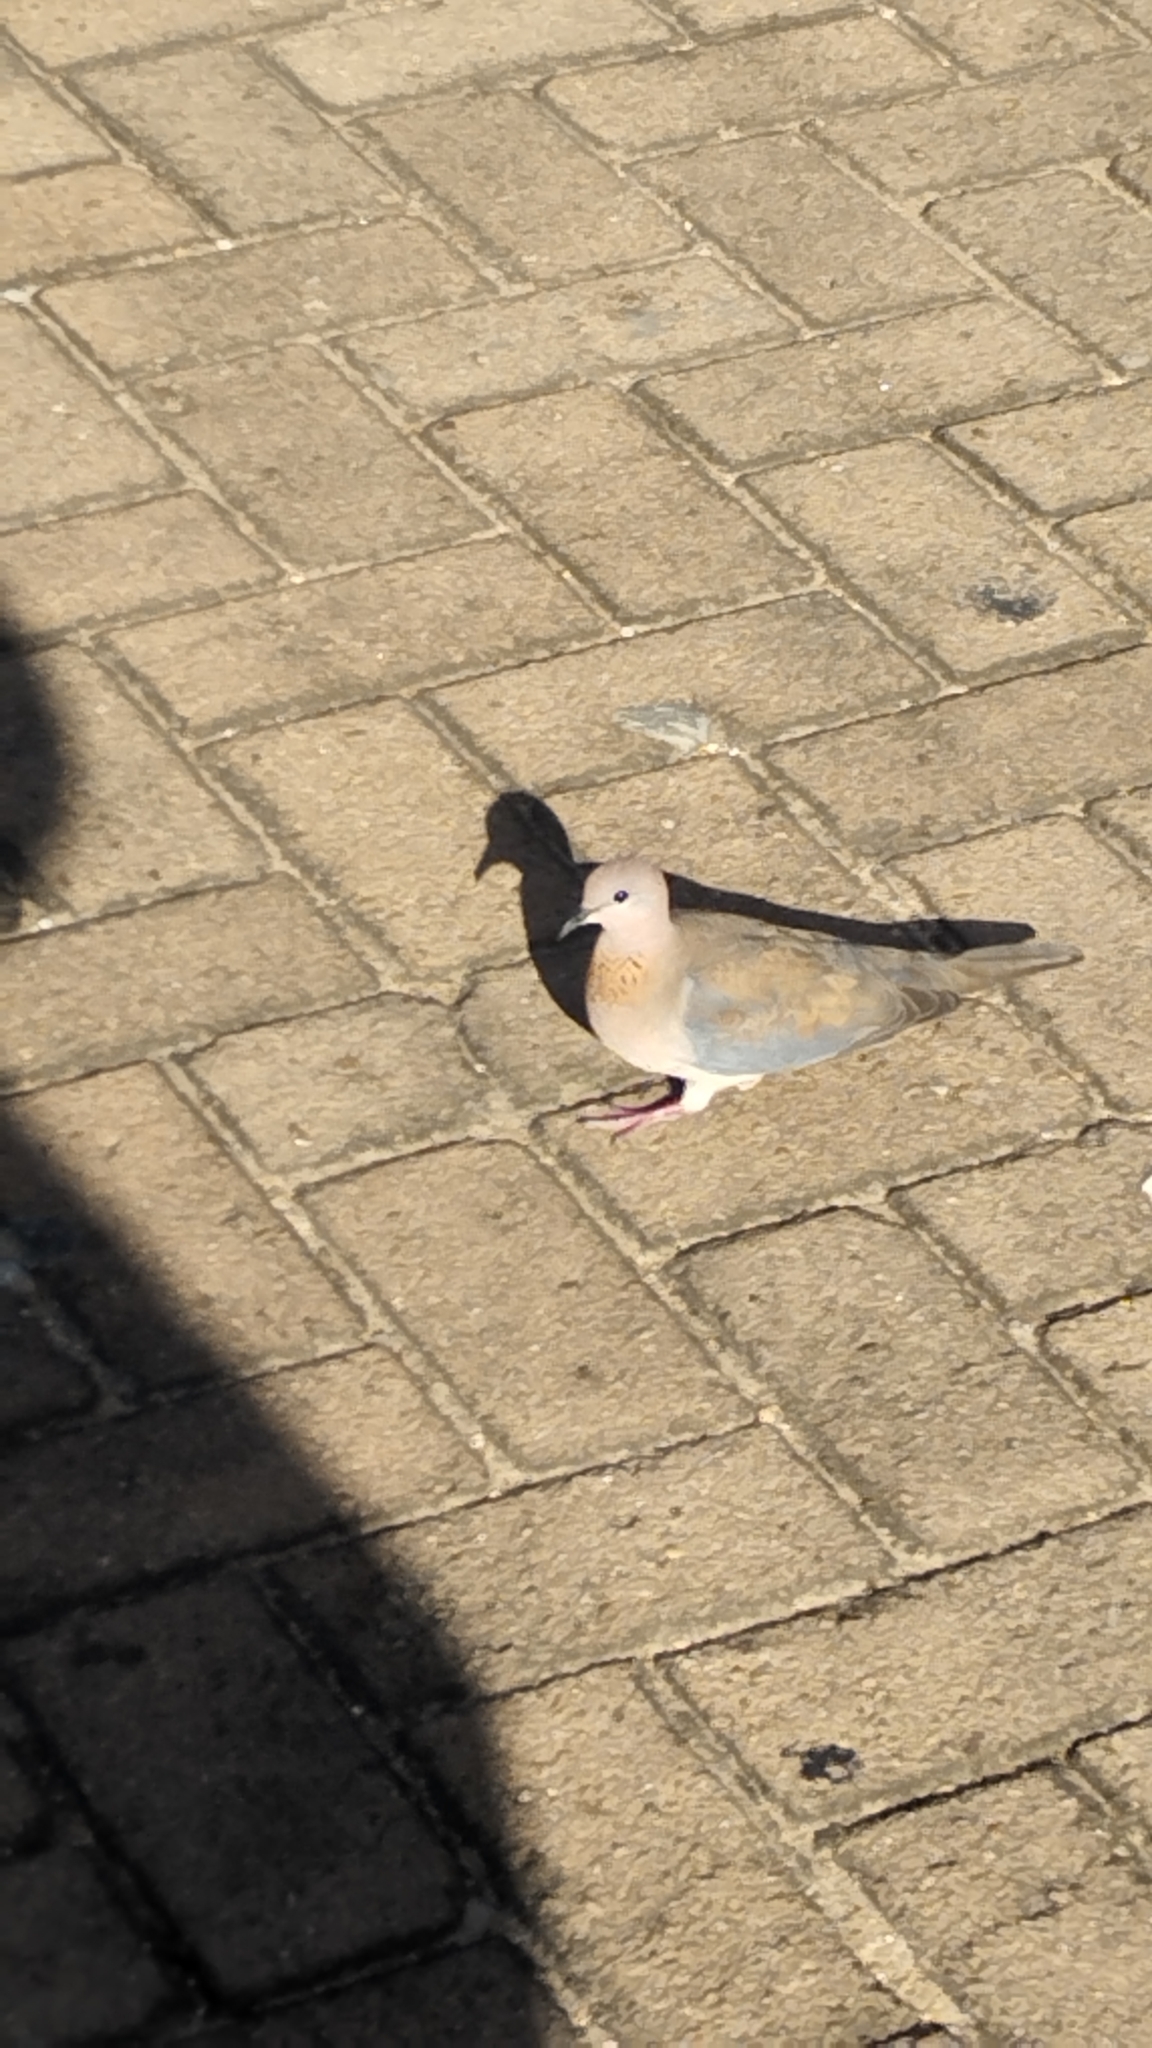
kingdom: Animalia
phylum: Chordata
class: Aves
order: Columbiformes
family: Columbidae
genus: Spilopelia
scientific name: Spilopelia senegalensis
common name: Laughing dove
